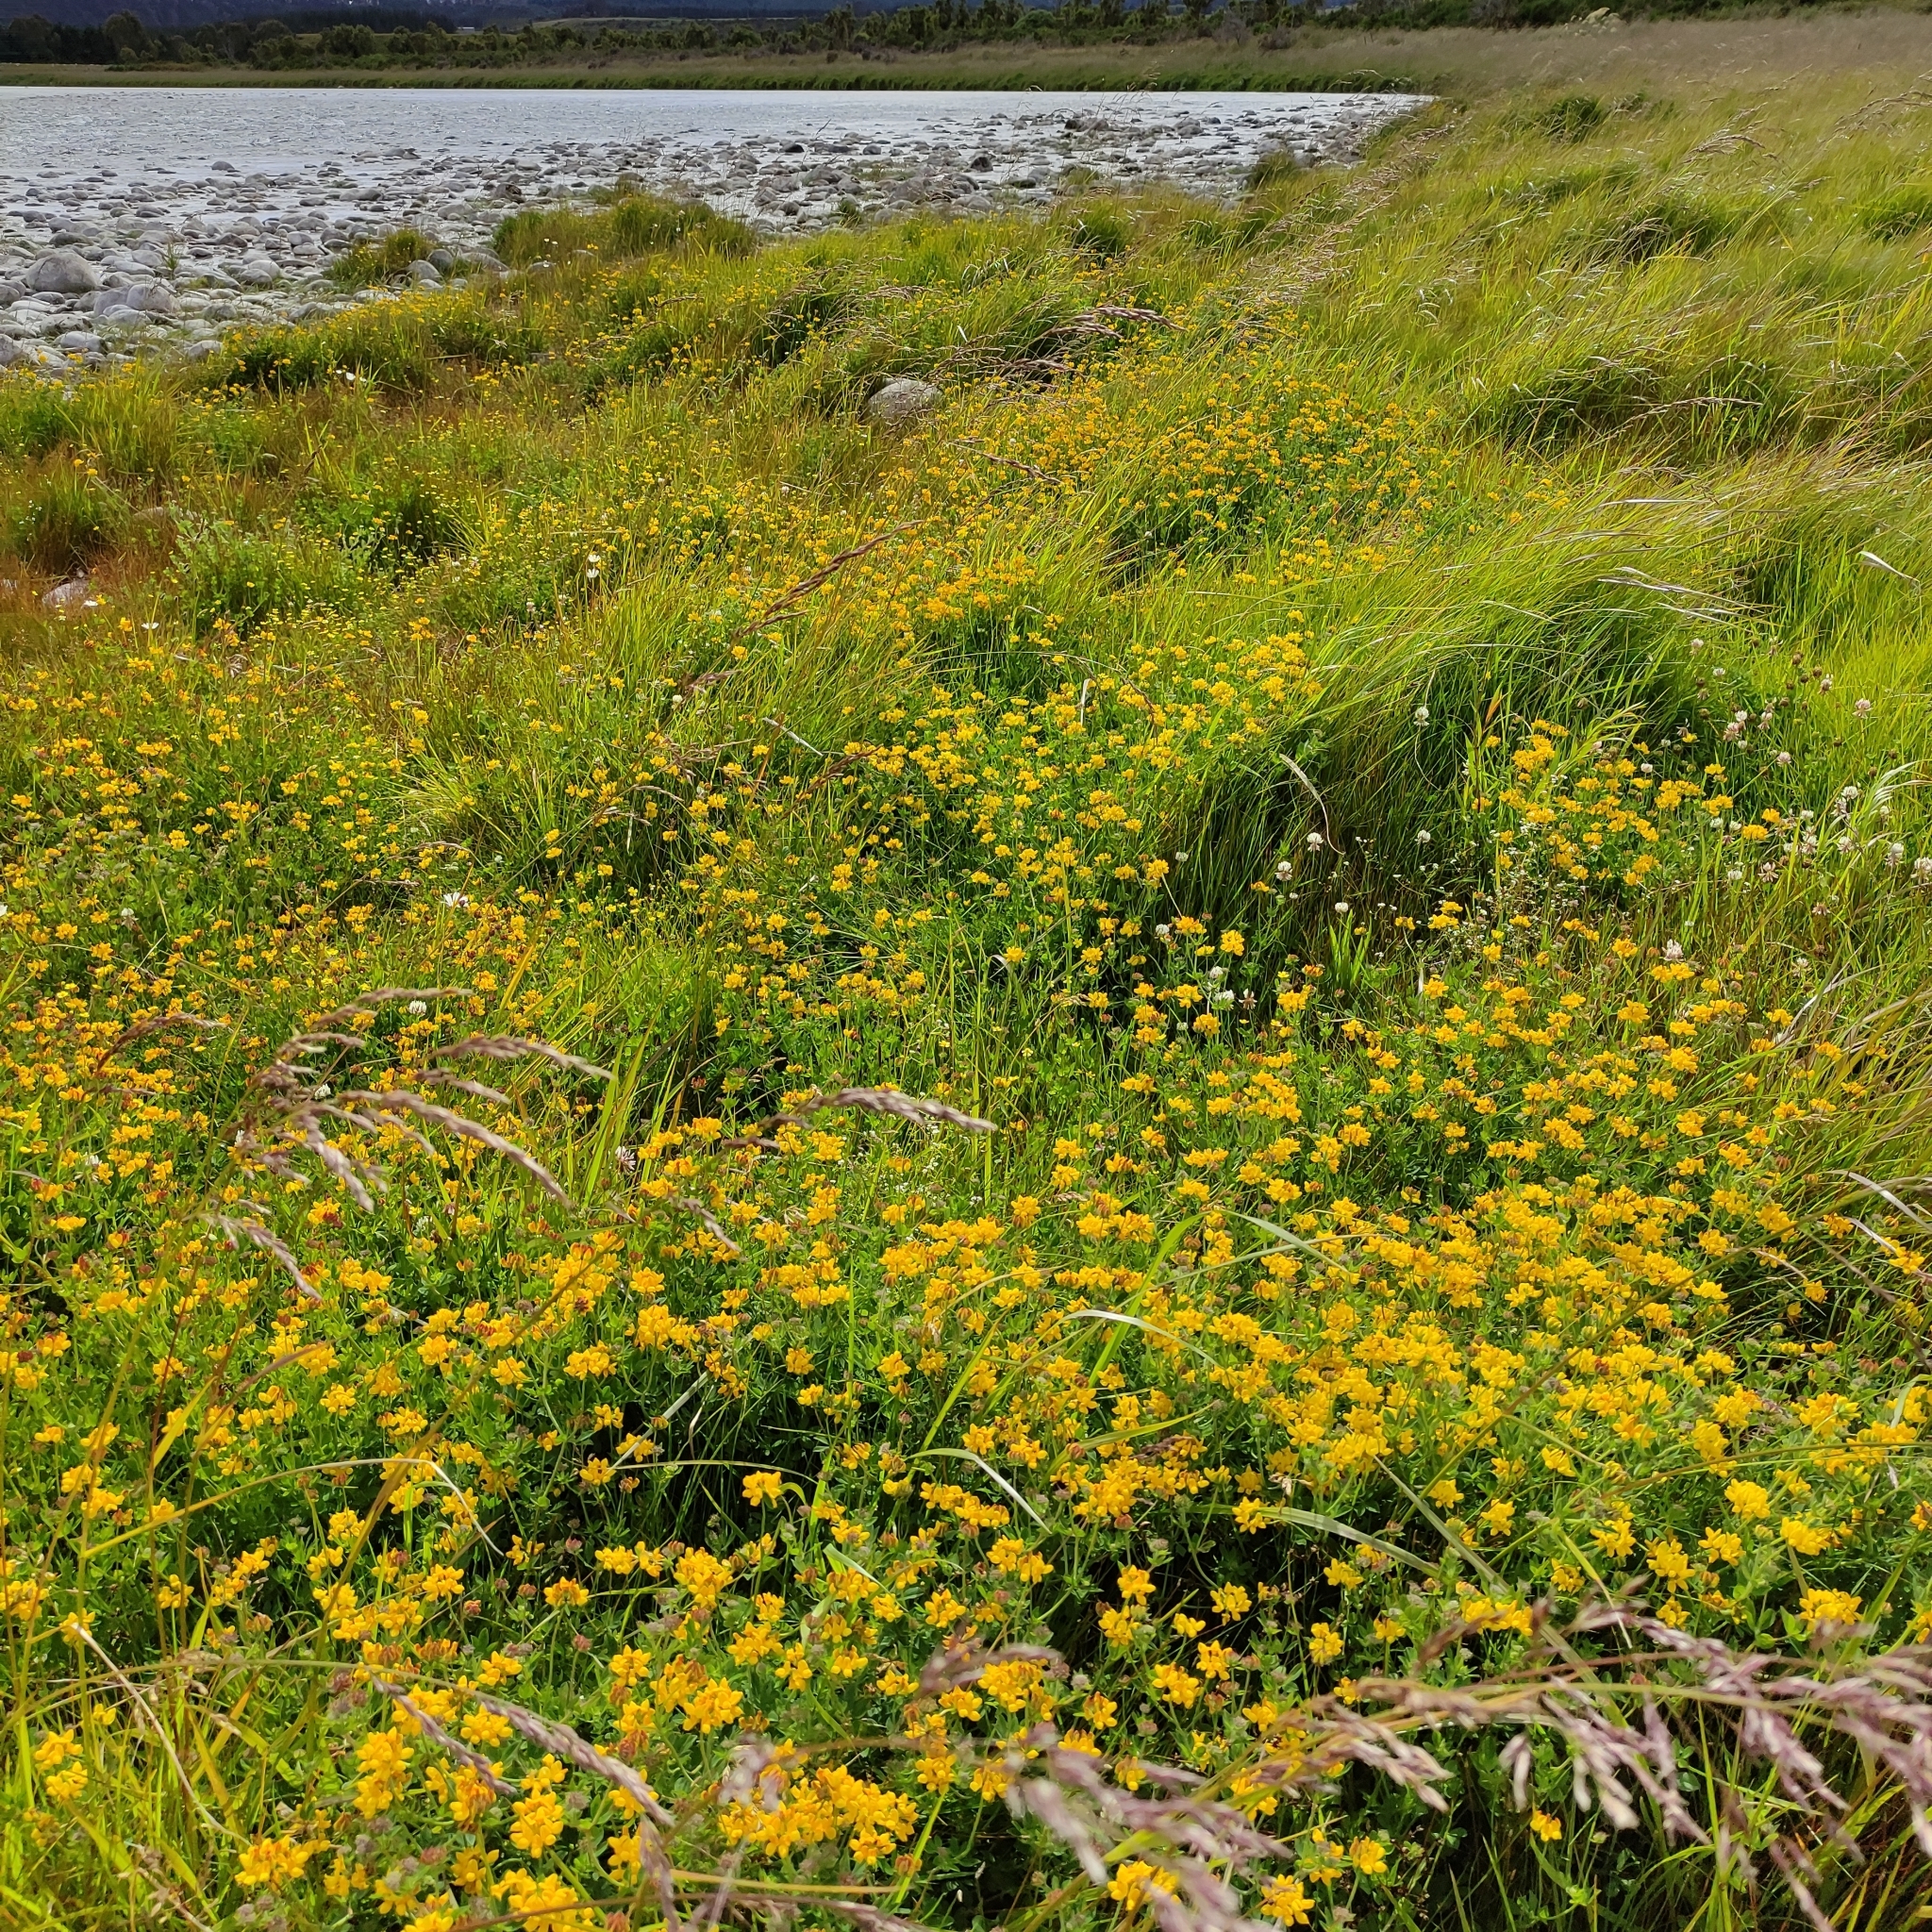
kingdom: Plantae
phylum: Tracheophyta
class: Magnoliopsida
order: Fabales
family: Fabaceae
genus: Lotus
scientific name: Lotus pedunculatus
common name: Greater birdsfoot-trefoil
